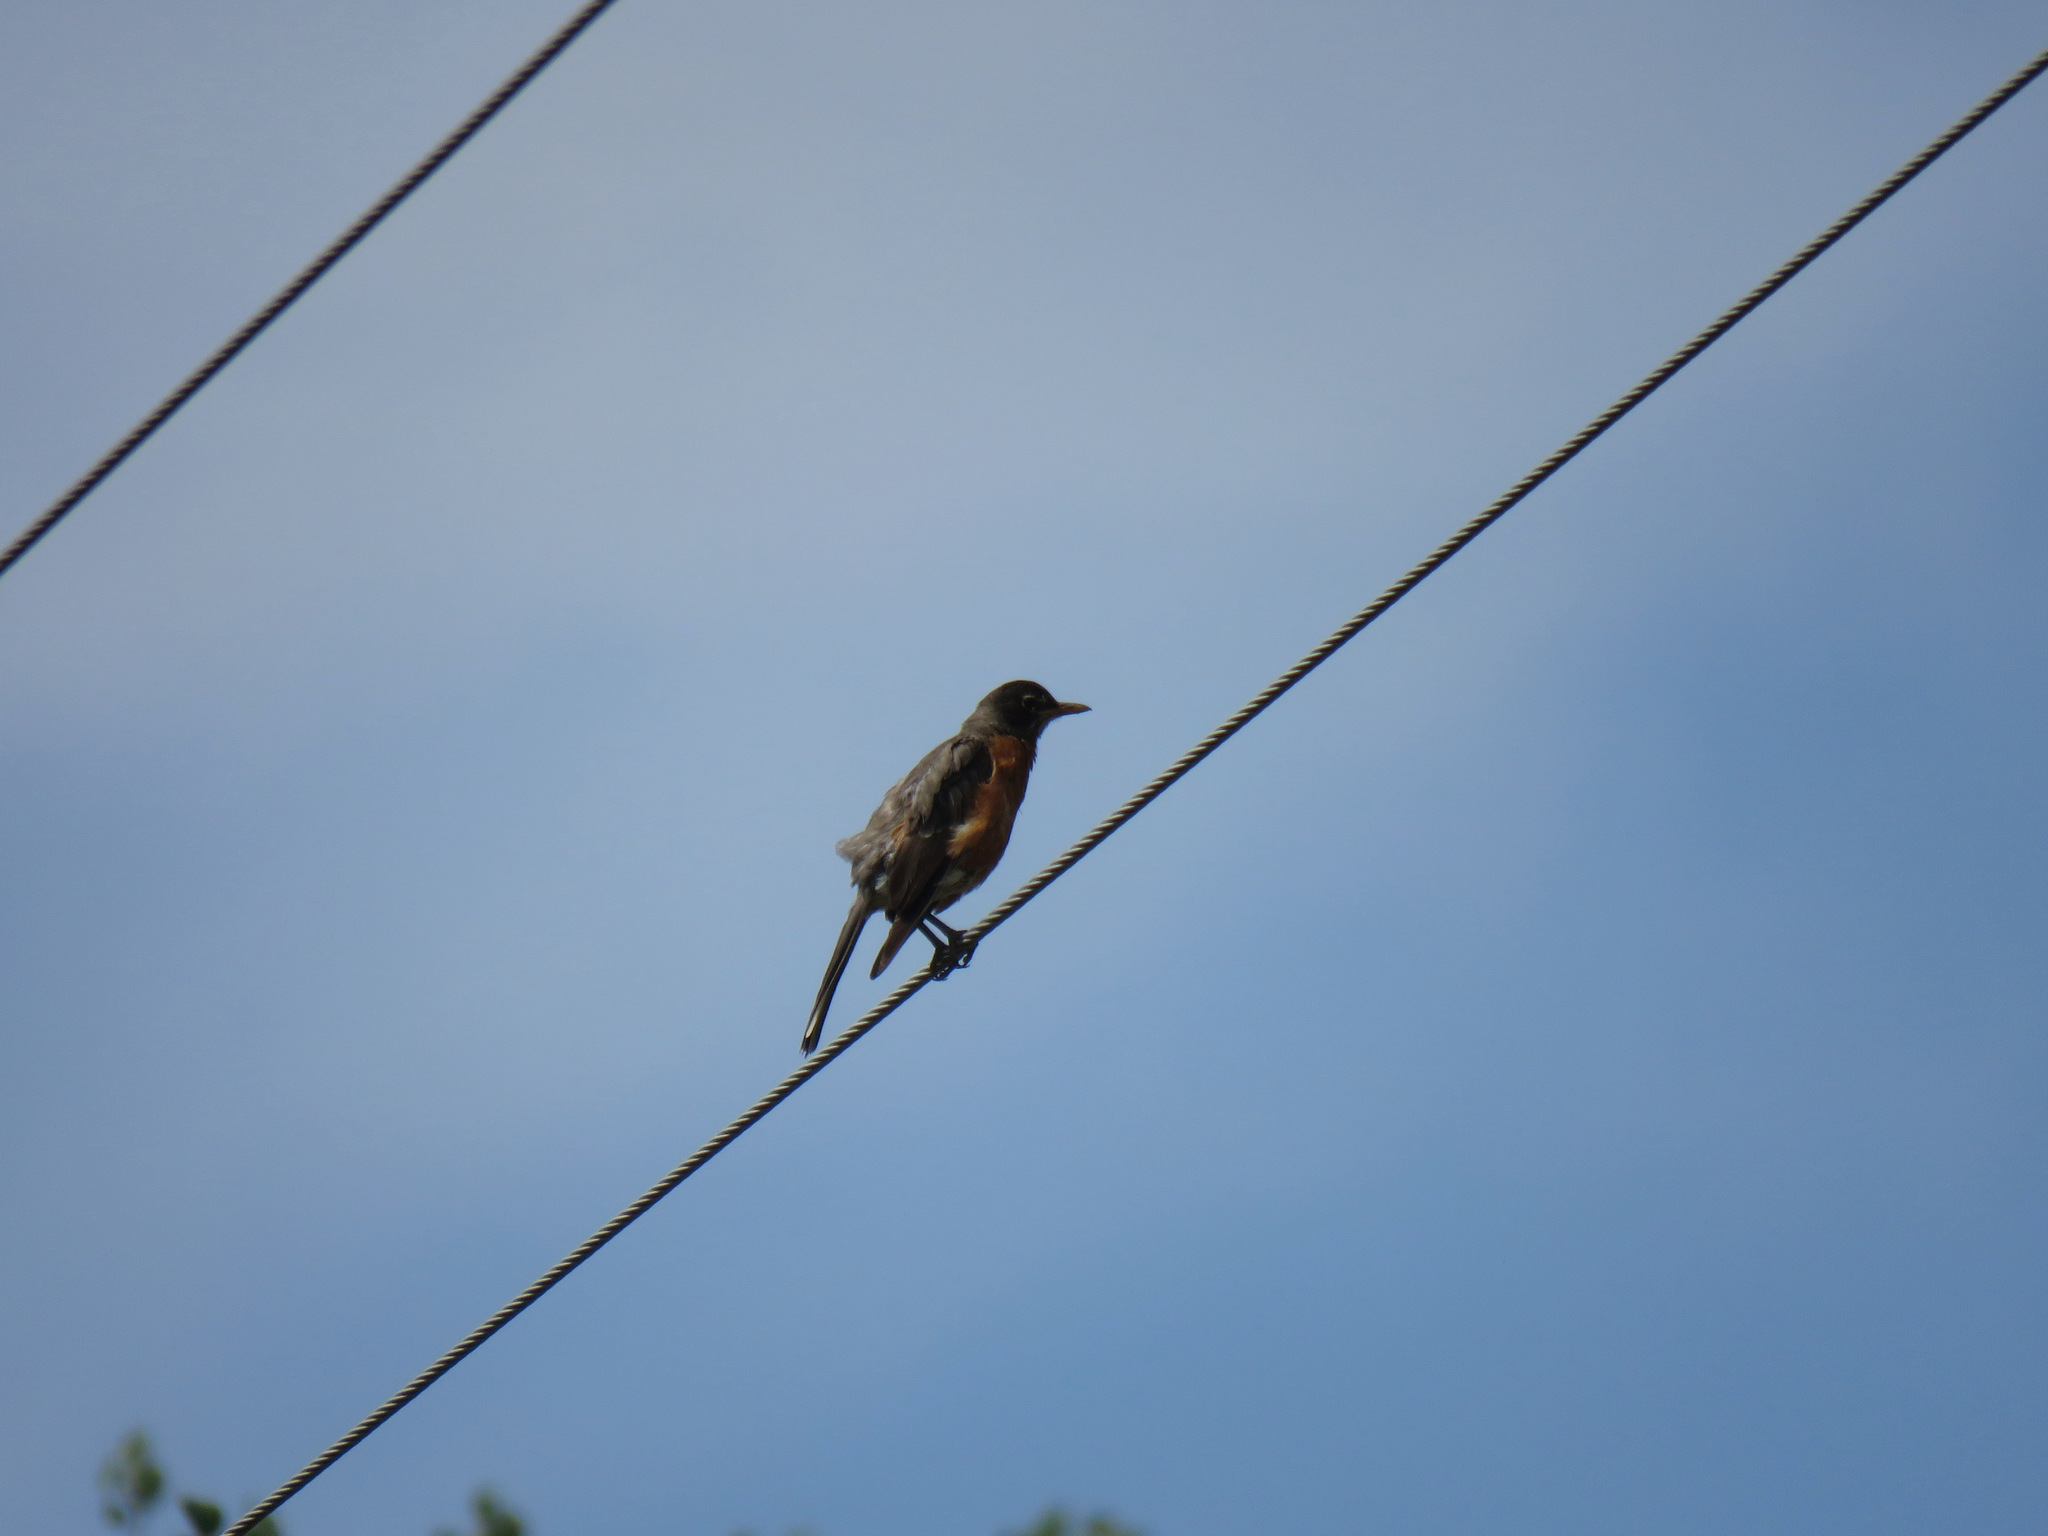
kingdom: Animalia
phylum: Chordata
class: Aves
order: Passeriformes
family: Turdidae
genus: Turdus
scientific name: Turdus migratorius
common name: American robin
